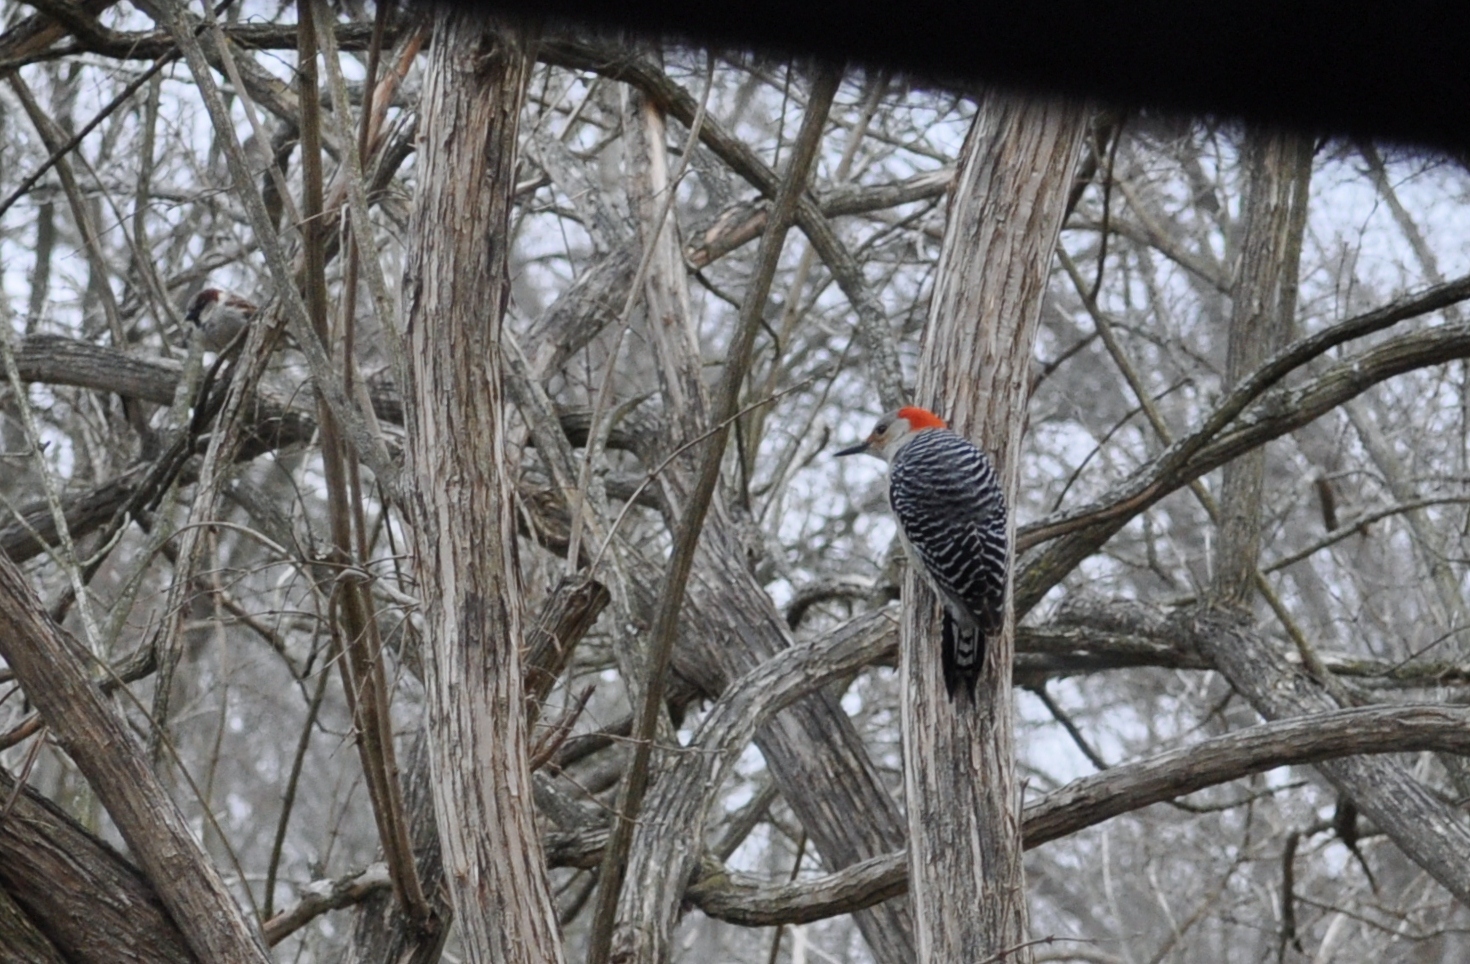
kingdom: Animalia
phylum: Chordata
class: Aves
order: Piciformes
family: Picidae
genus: Melanerpes
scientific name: Melanerpes carolinus
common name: Red-bellied woodpecker
